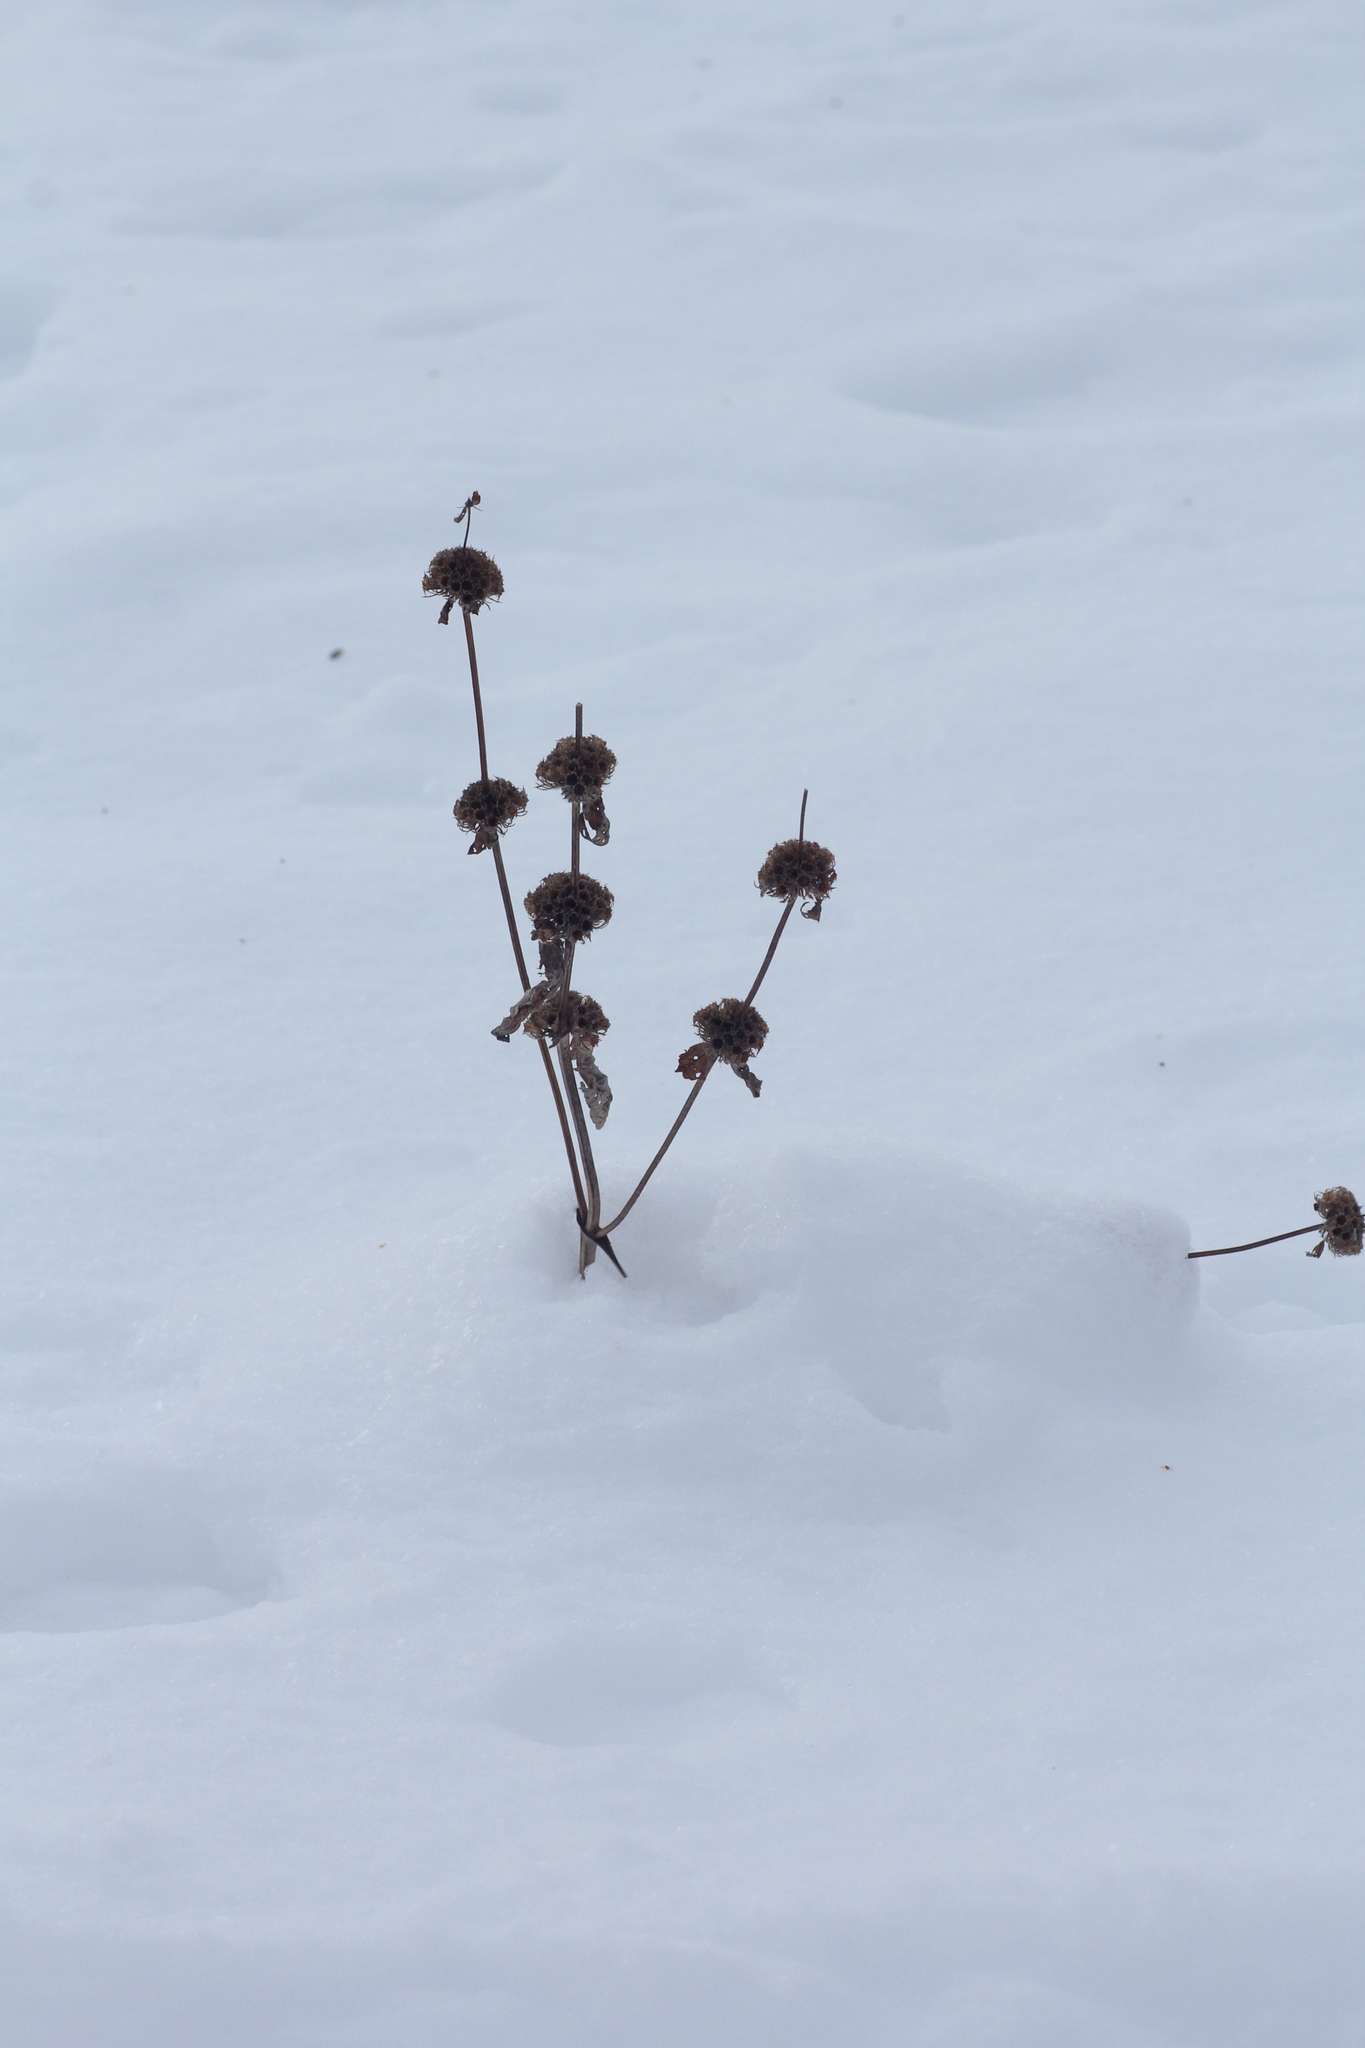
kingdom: Plantae
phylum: Tracheophyta
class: Magnoliopsida
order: Lamiales
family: Lamiaceae
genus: Phlomoides
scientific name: Phlomoides tuberosa
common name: Tuberous jerusalem sage
